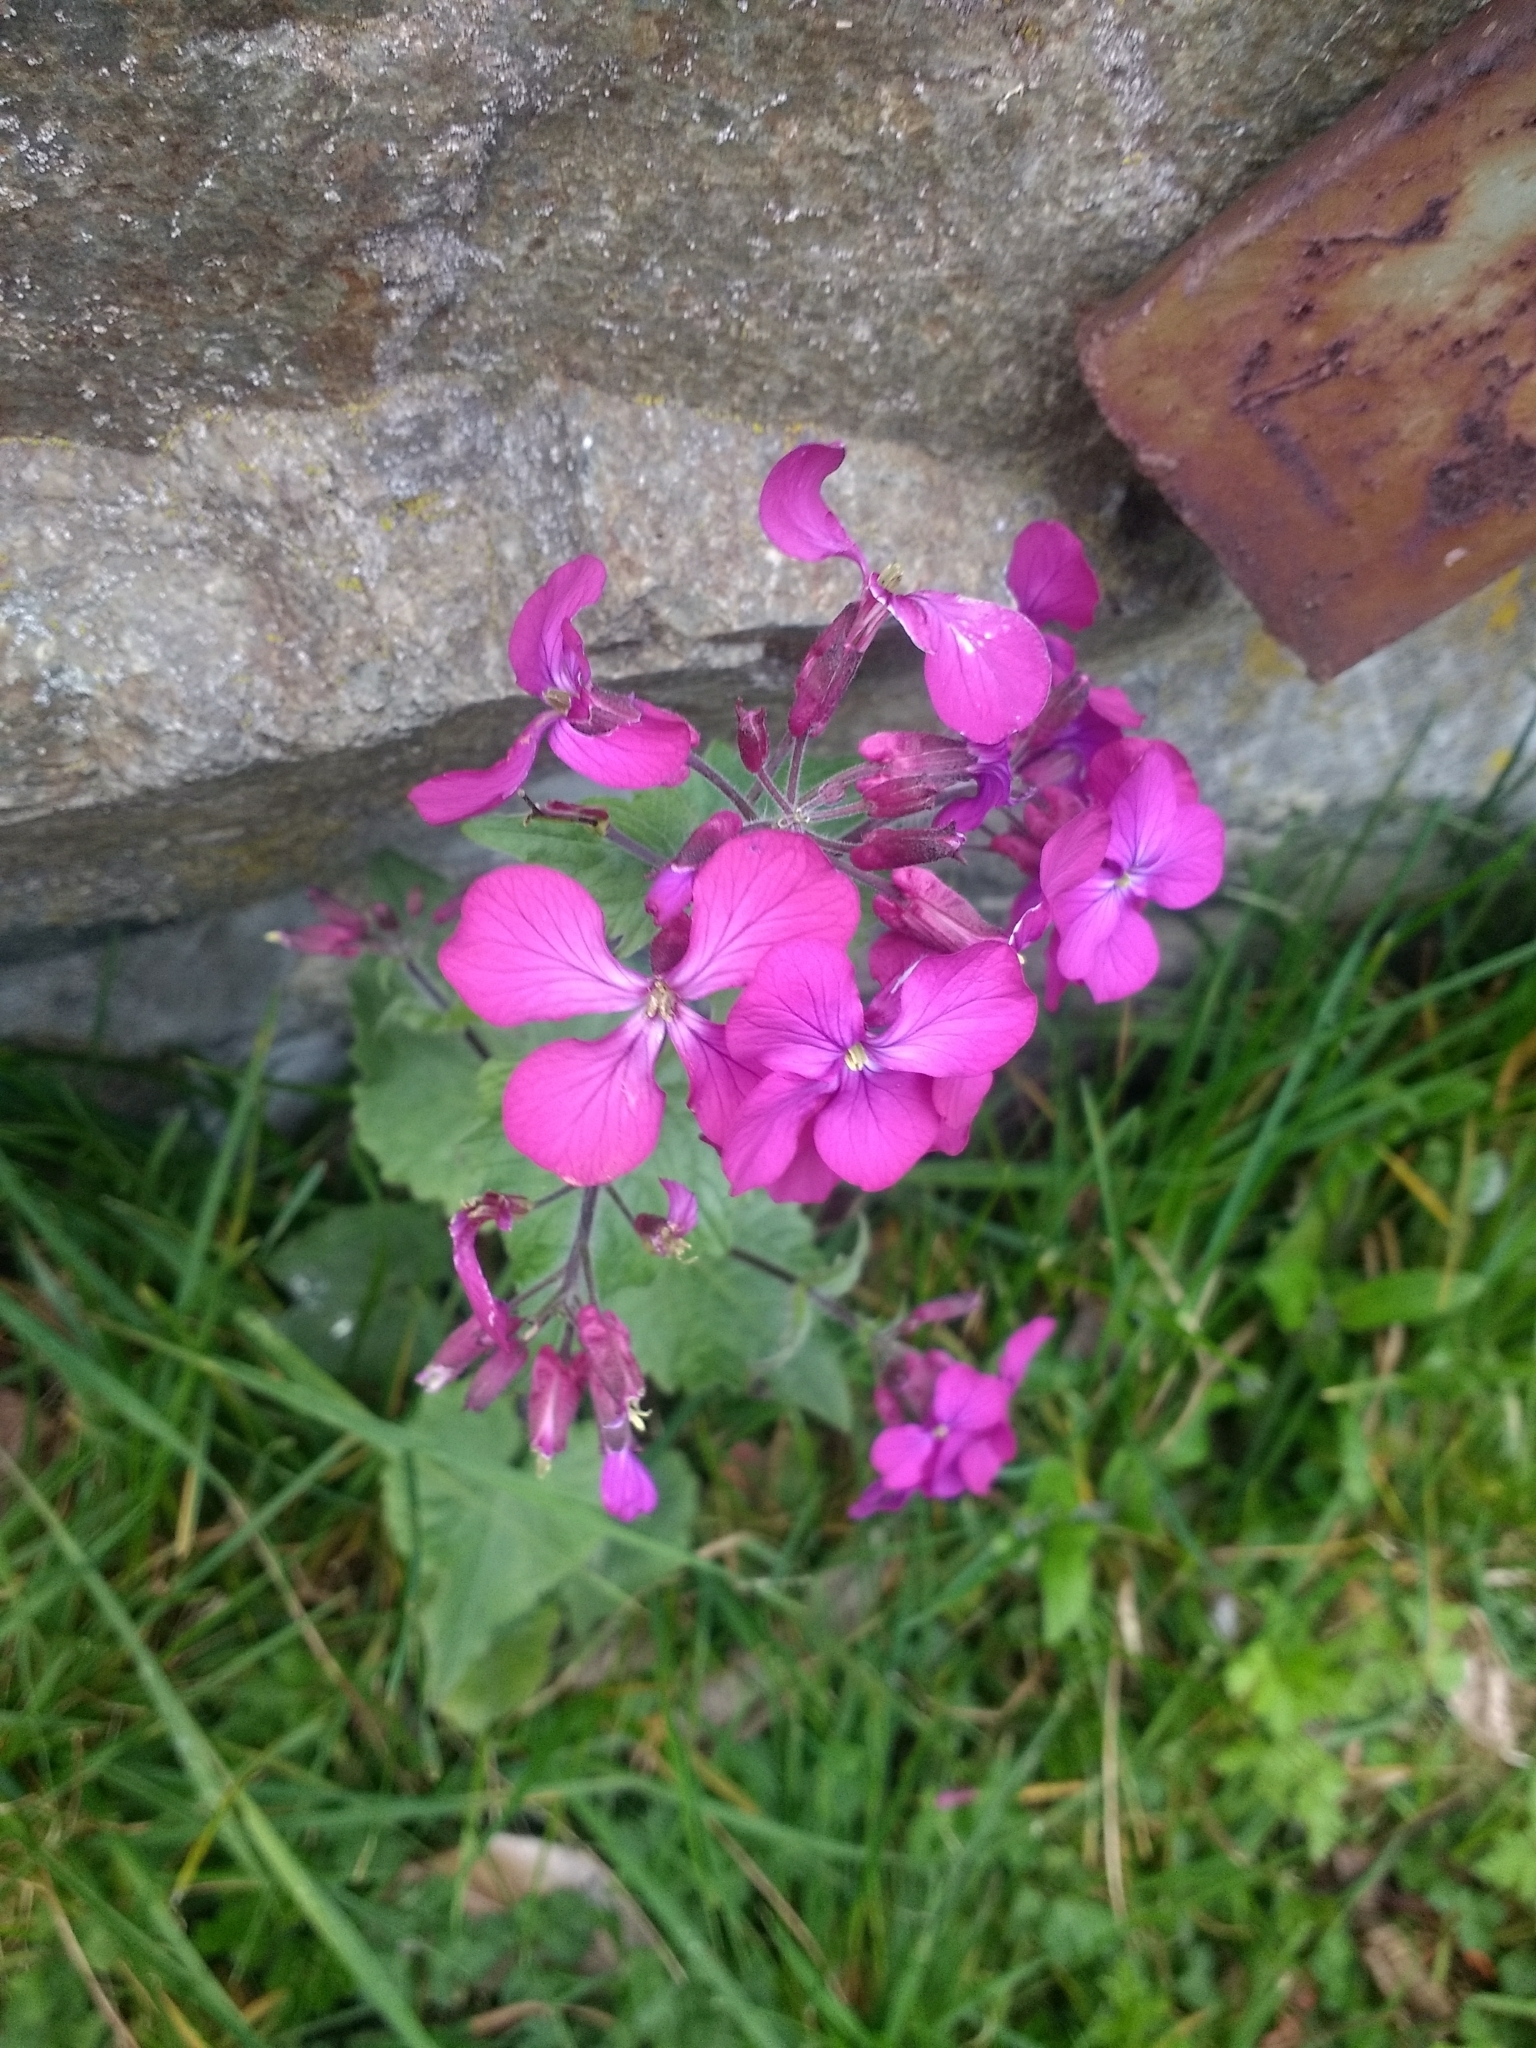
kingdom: Plantae
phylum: Tracheophyta
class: Magnoliopsida
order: Brassicales
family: Brassicaceae
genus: Lunaria
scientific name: Lunaria annua
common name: Honesty
